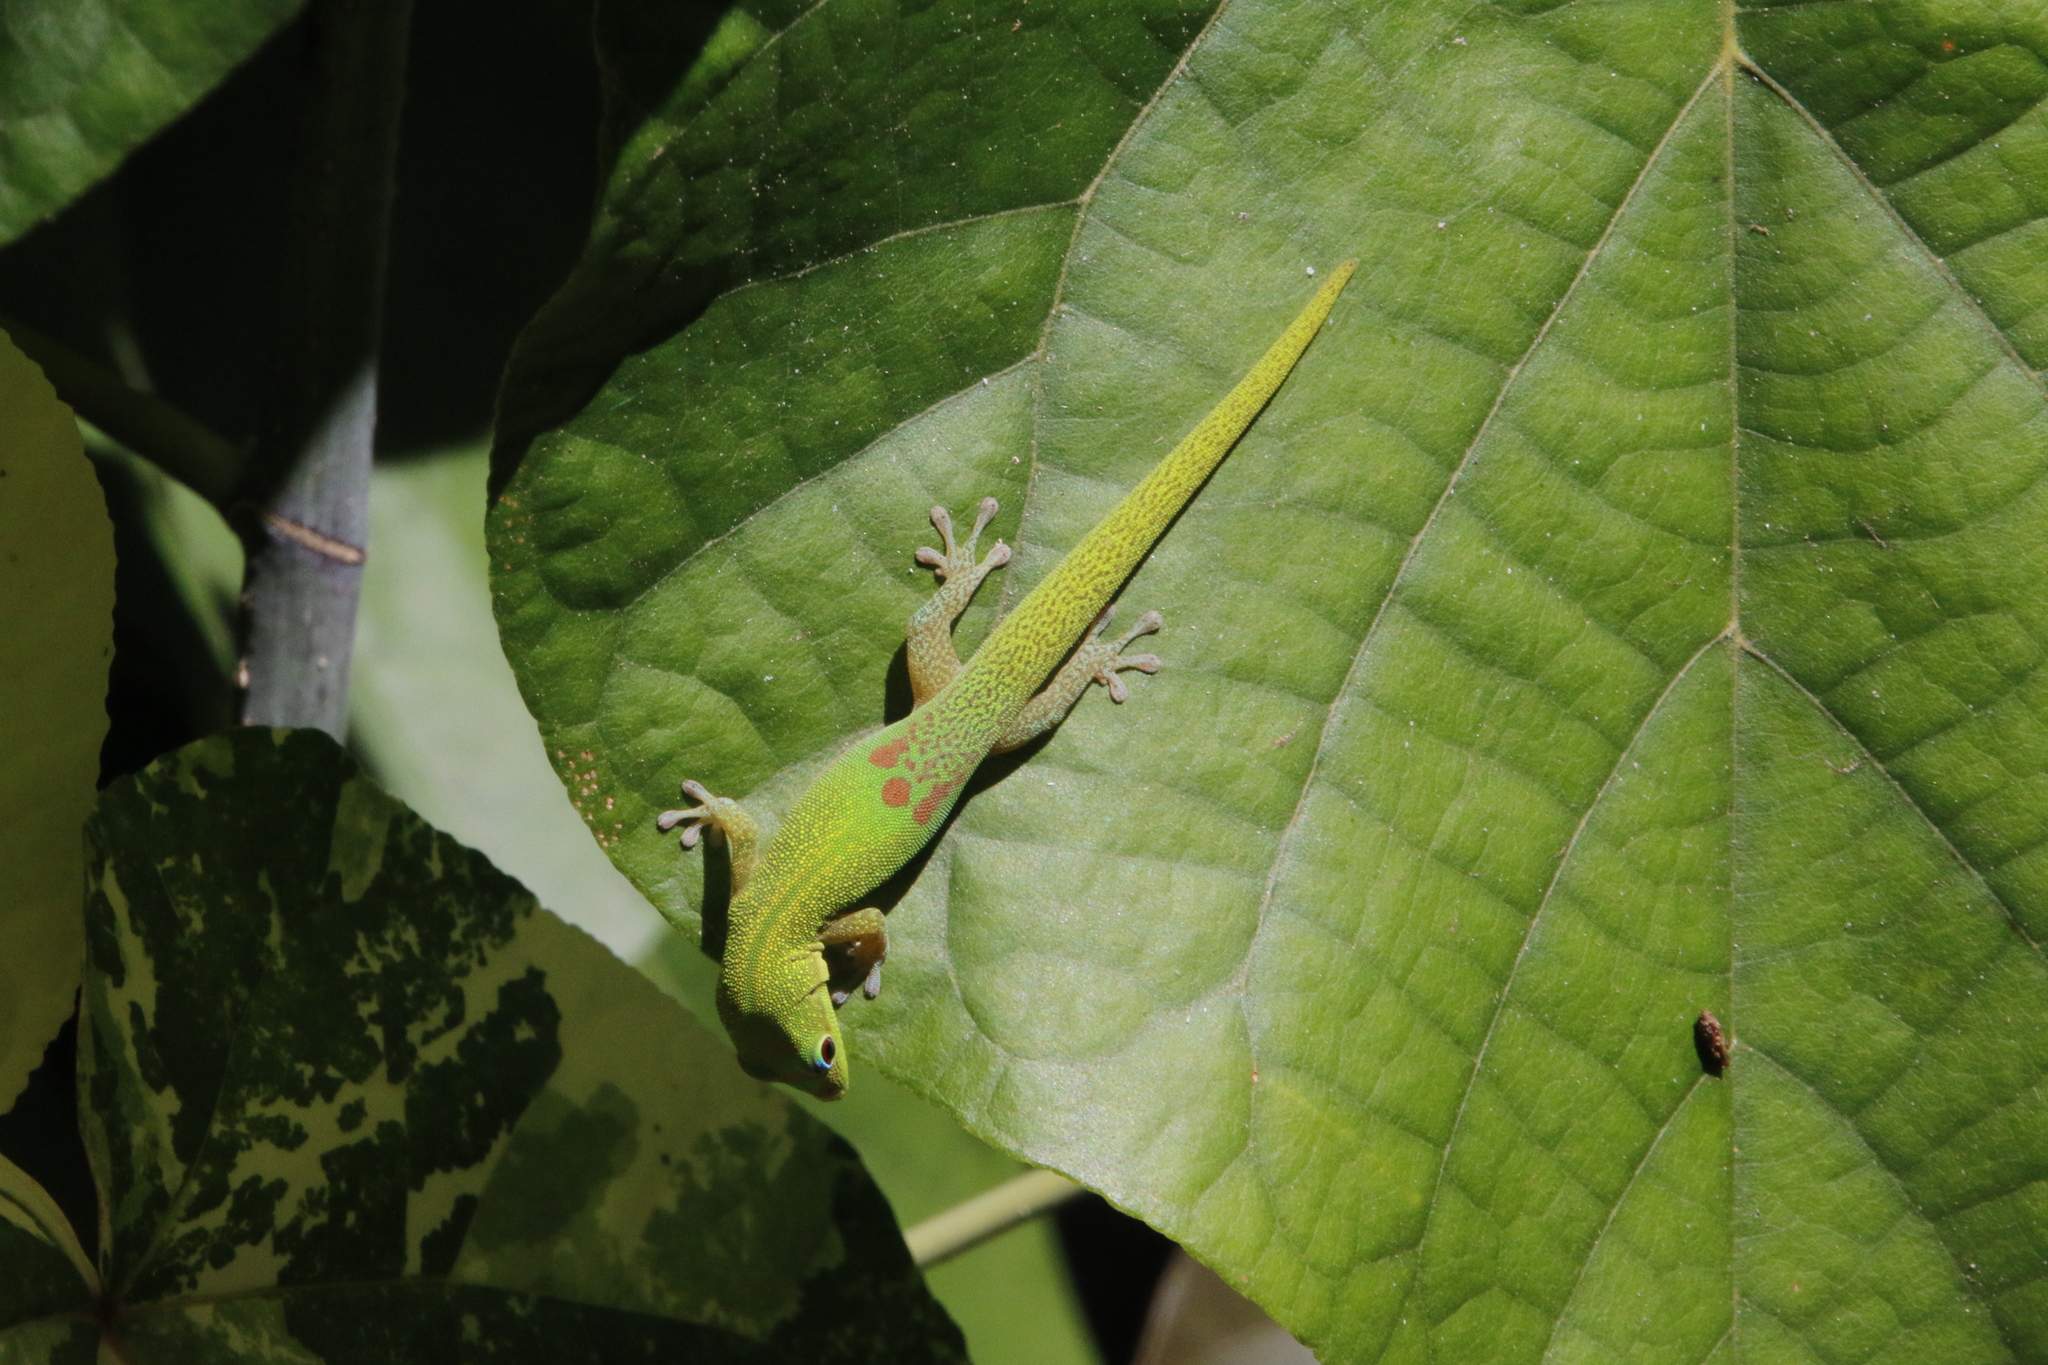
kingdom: Animalia
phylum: Chordata
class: Squamata
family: Gekkonidae
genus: Phelsuma
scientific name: Phelsuma laticauda
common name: Gold dust day gecko
